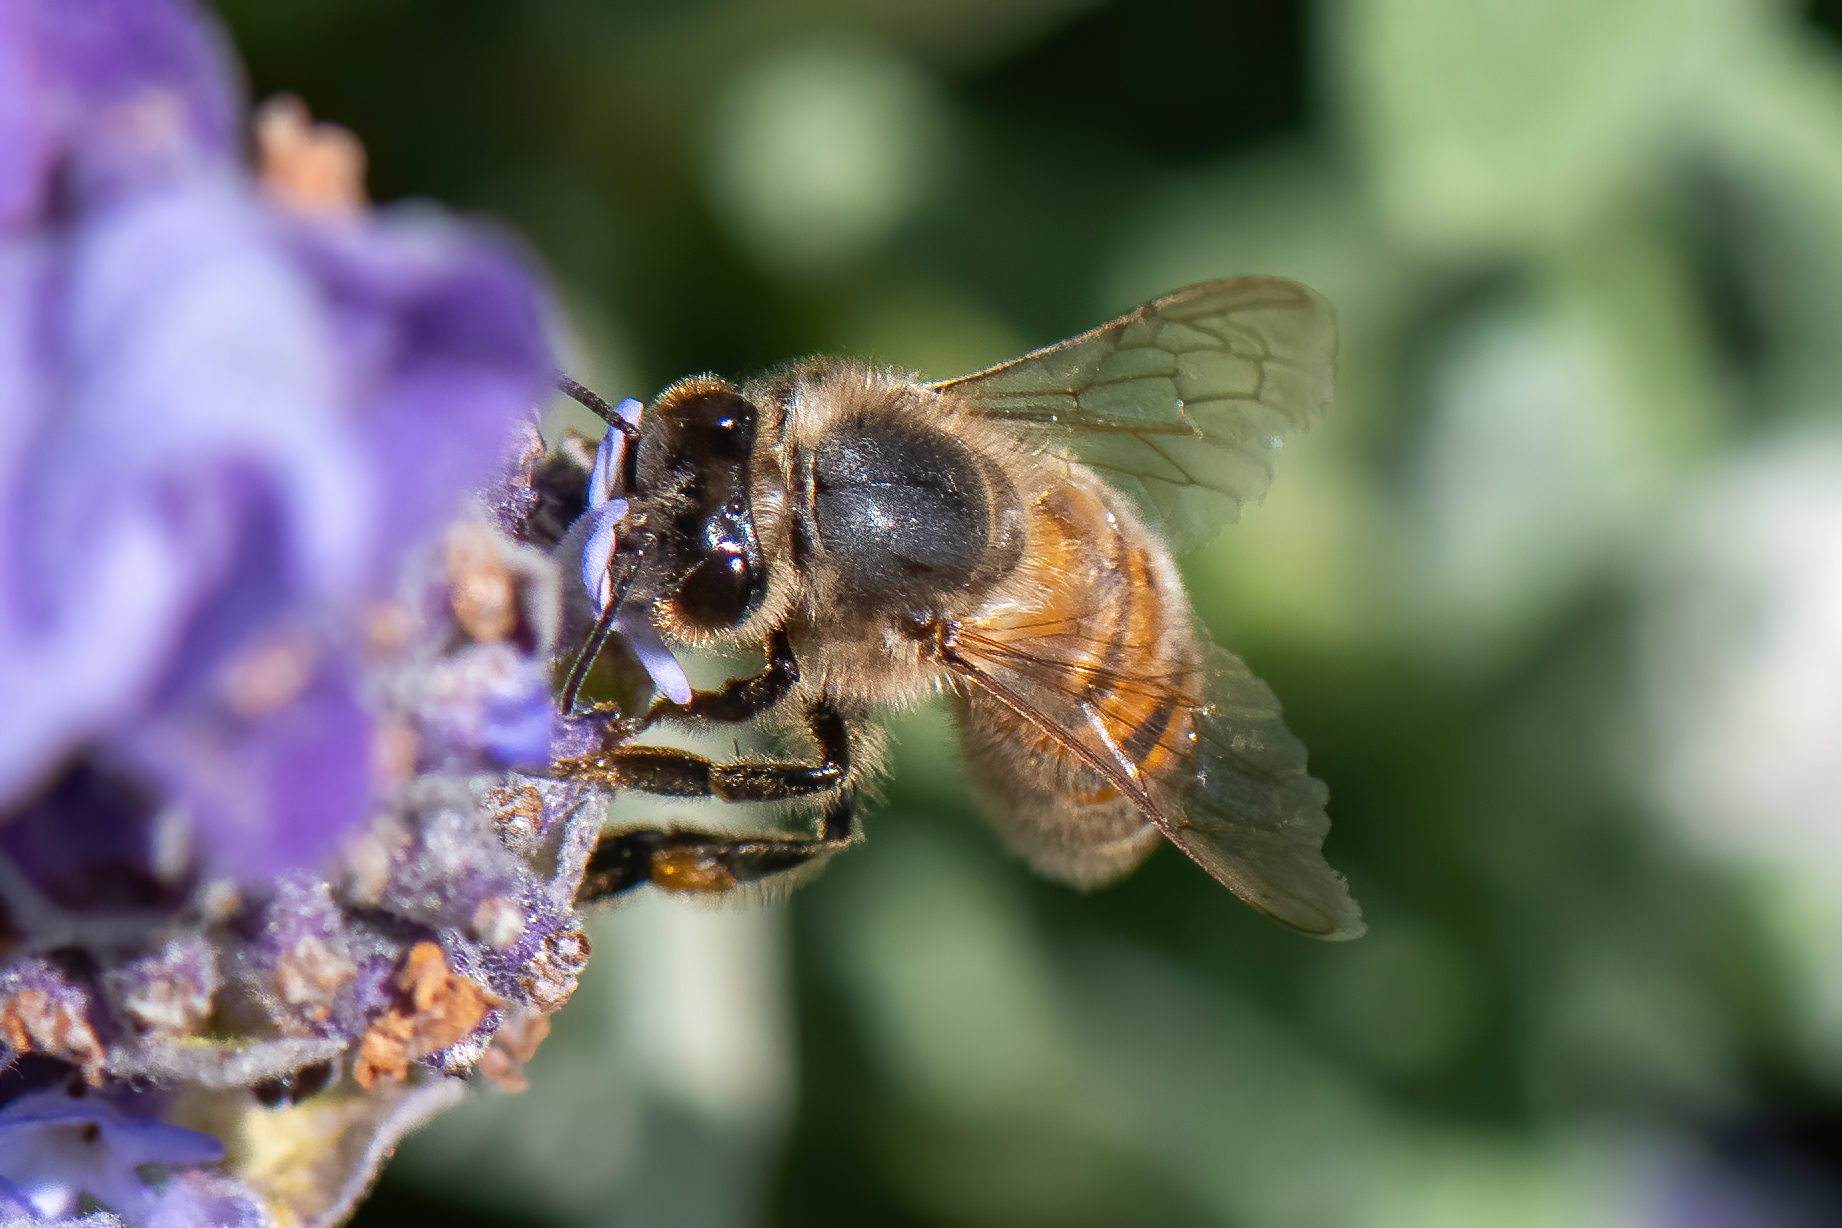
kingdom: Animalia
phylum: Arthropoda
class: Insecta
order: Hymenoptera
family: Apidae
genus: Apis
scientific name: Apis mellifera
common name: Honey bee
